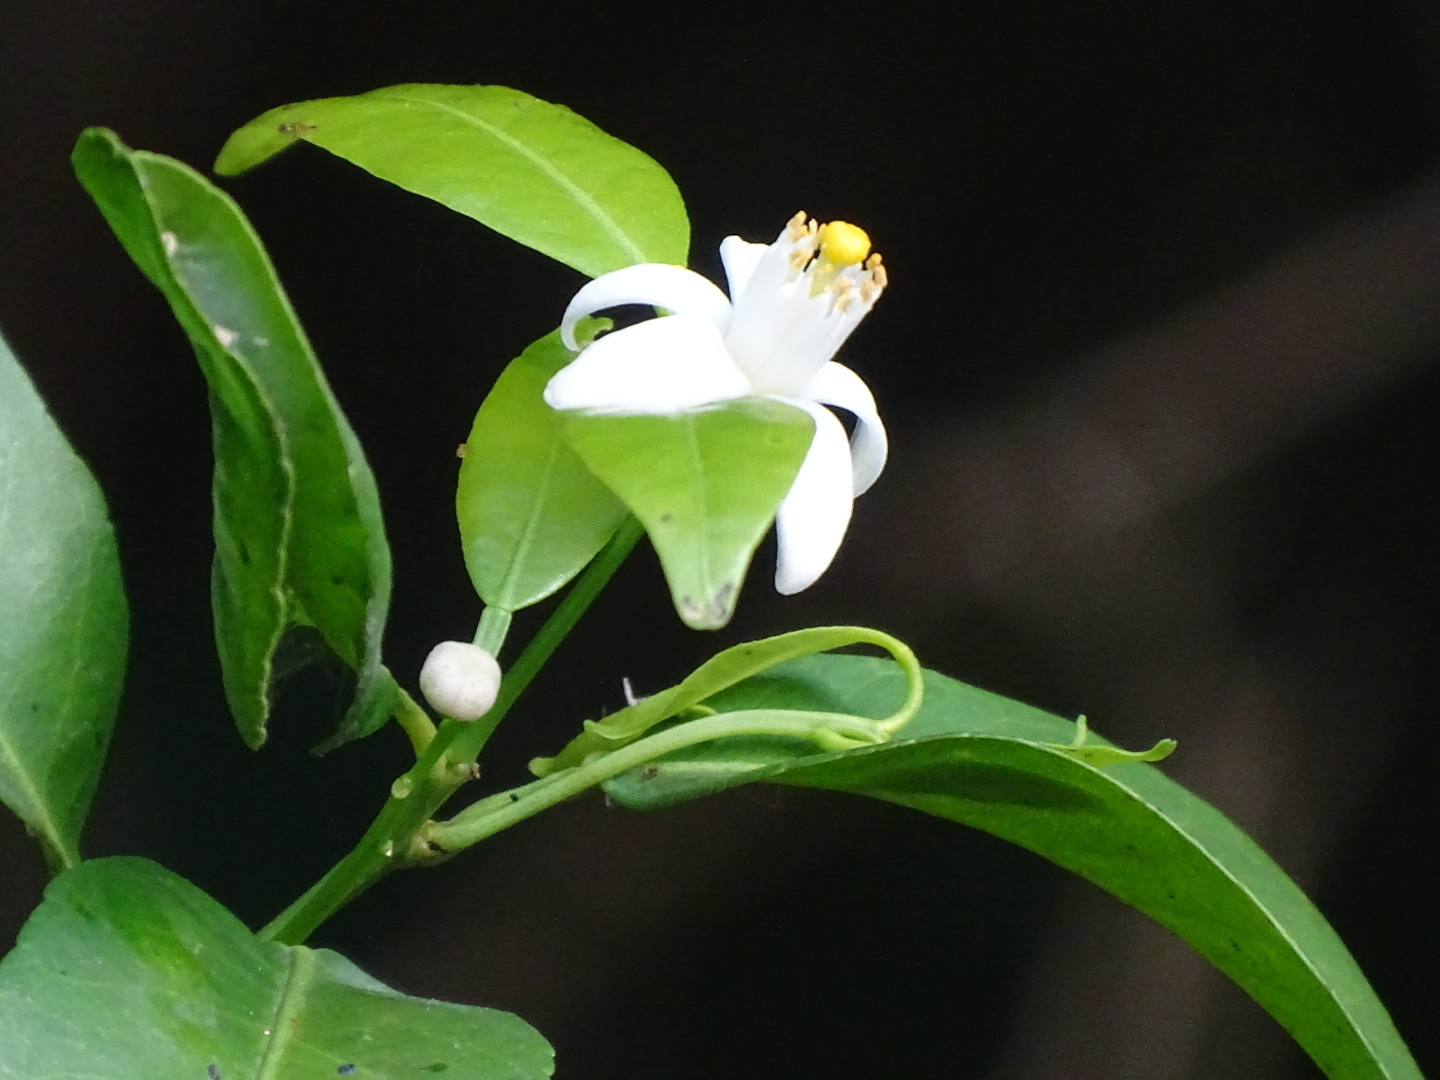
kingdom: Plantae
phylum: Tracheophyta
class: Magnoliopsida
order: Sapindales
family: Rutaceae
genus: Citrus
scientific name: Citrus microcarpa
